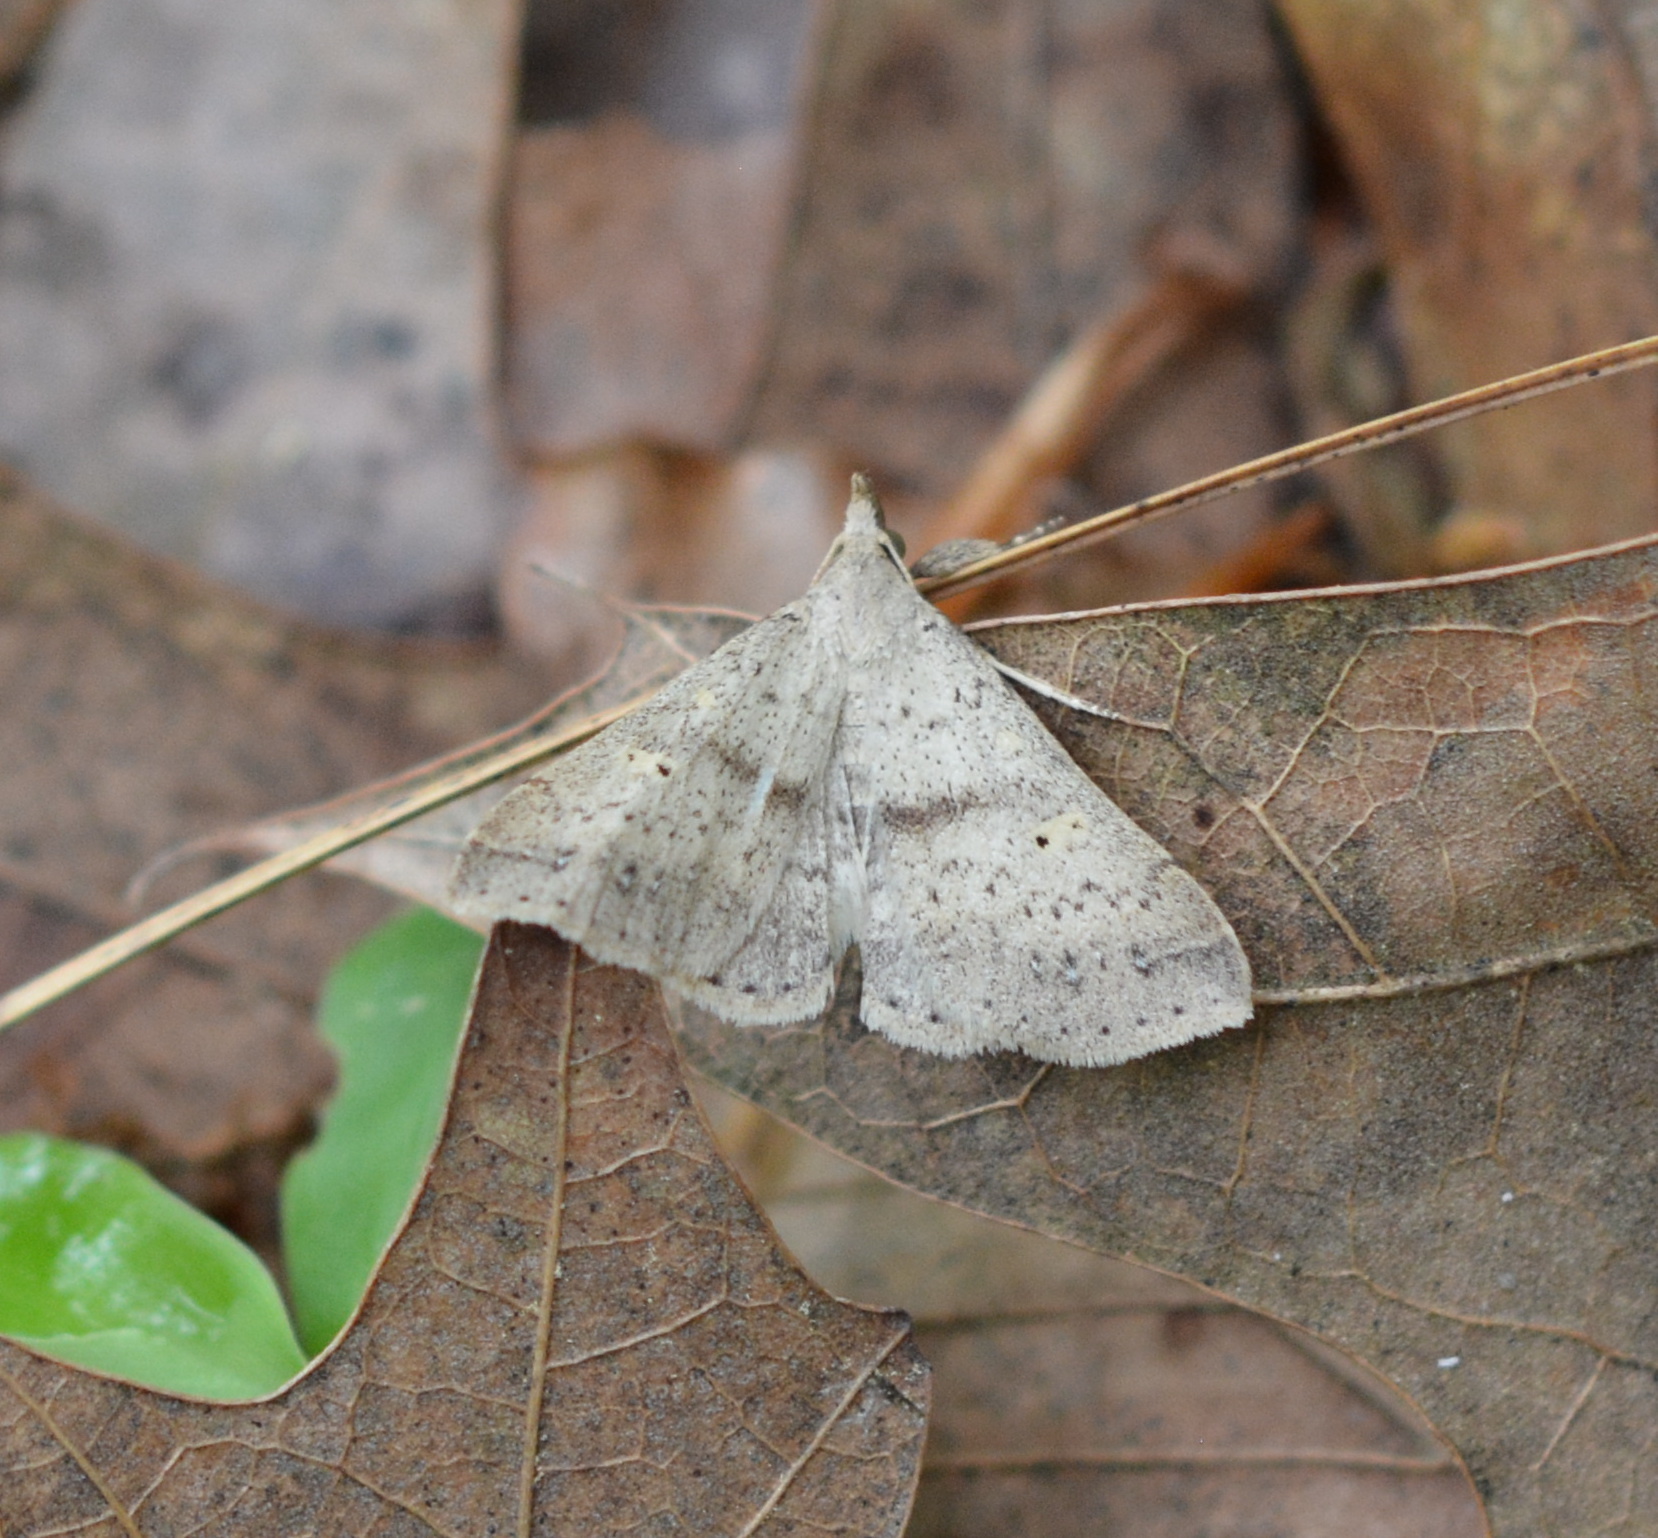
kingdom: Animalia
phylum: Arthropoda
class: Insecta
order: Lepidoptera
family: Erebidae
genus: Renia
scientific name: Renia adspergillus
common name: Speckled renia moth
